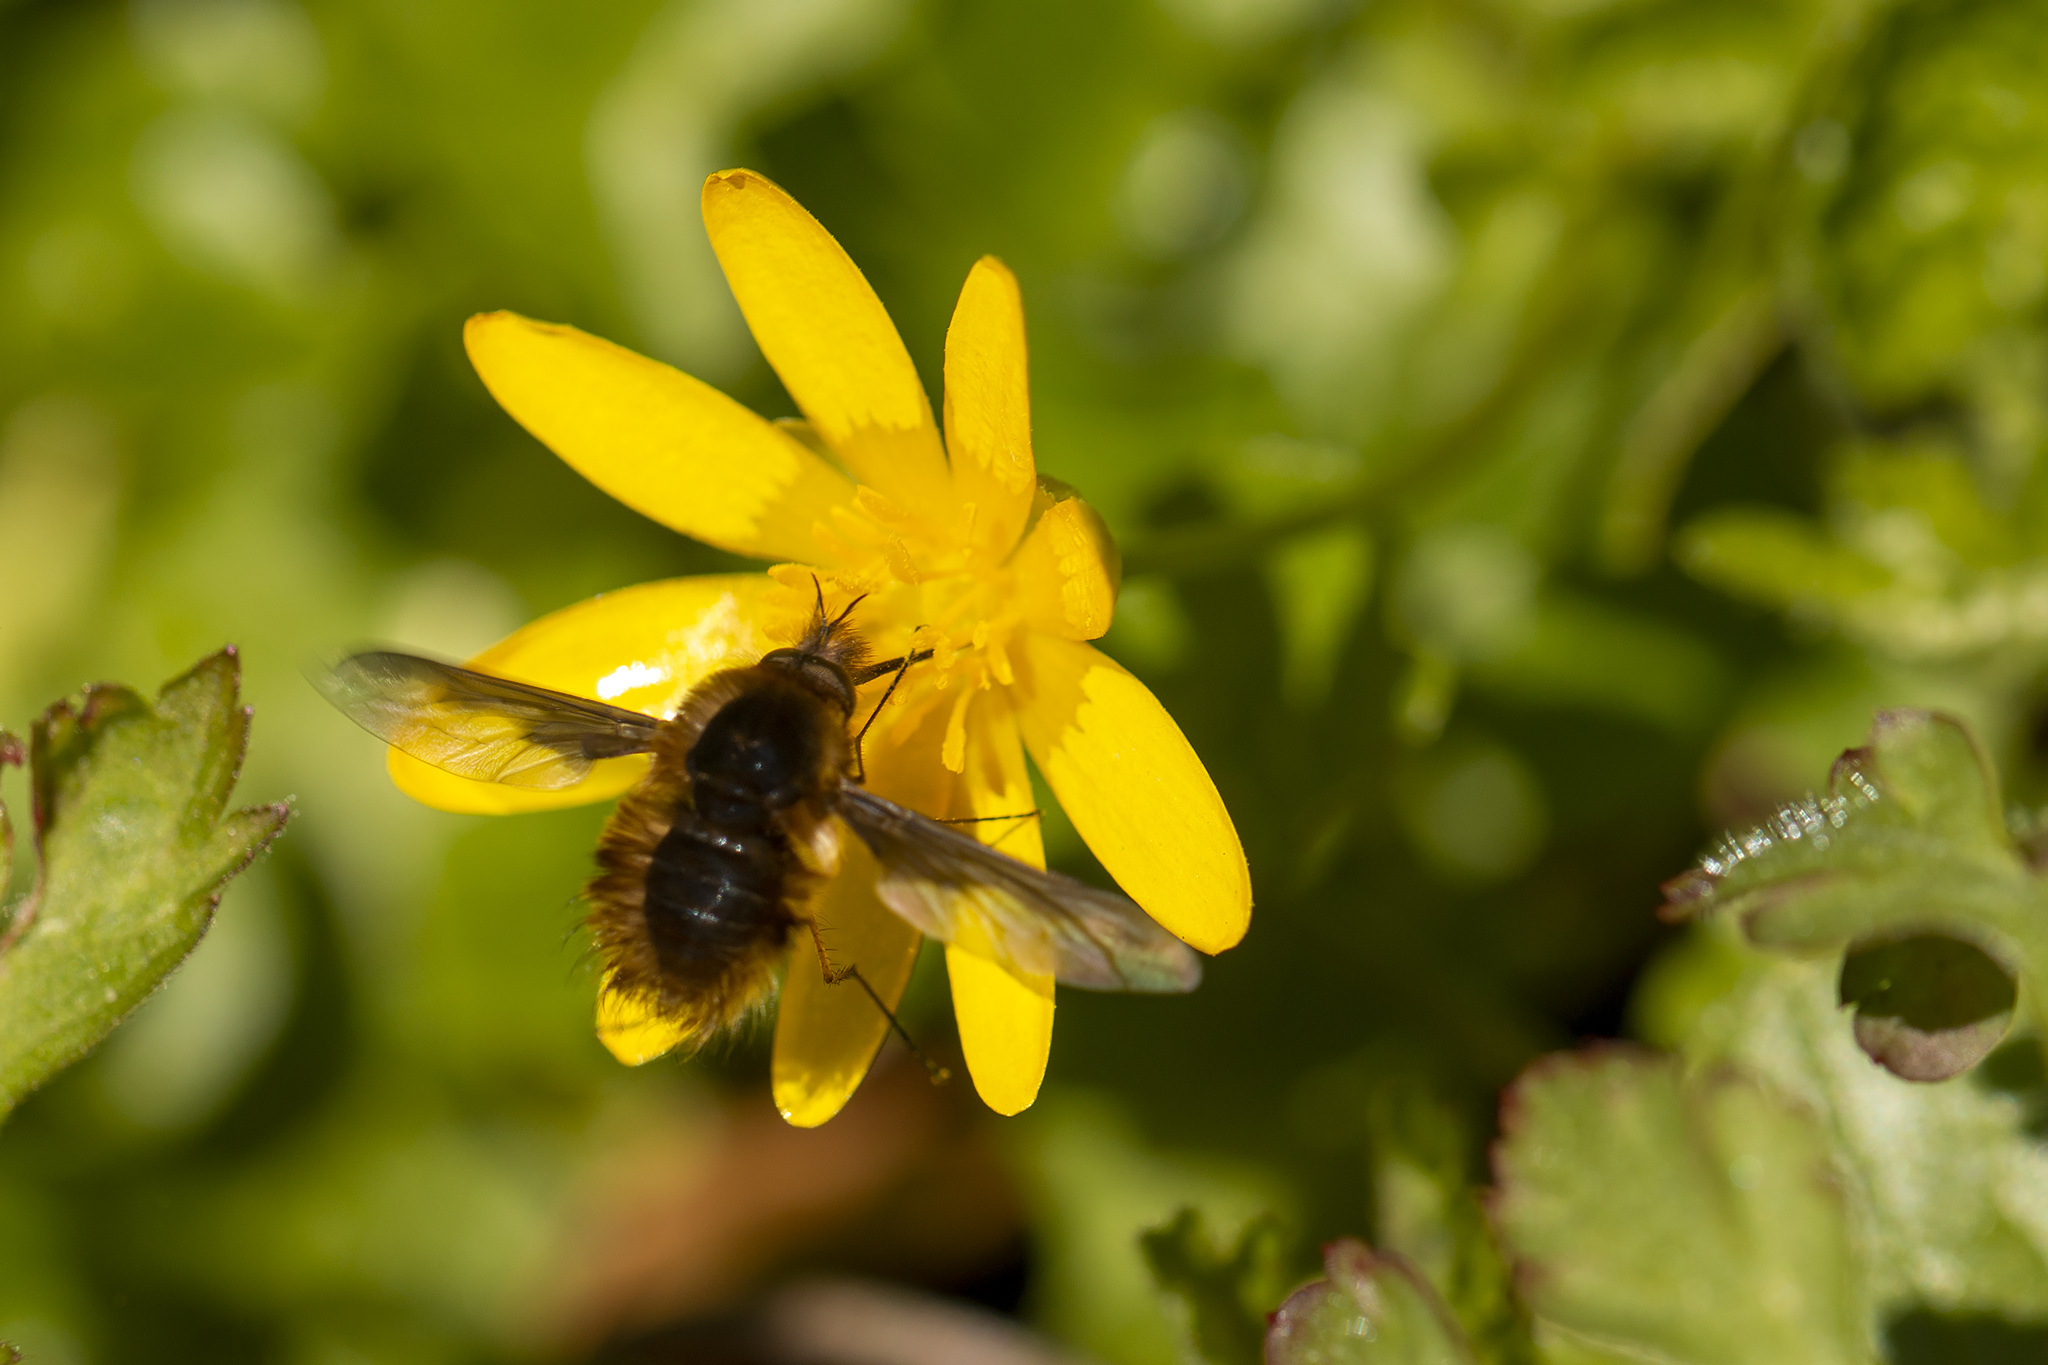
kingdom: Animalia
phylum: Arthropoda
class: Insecta
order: Diptera
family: Bombyliidae
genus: Bombylius
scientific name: Bombylius major
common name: Bee fly
